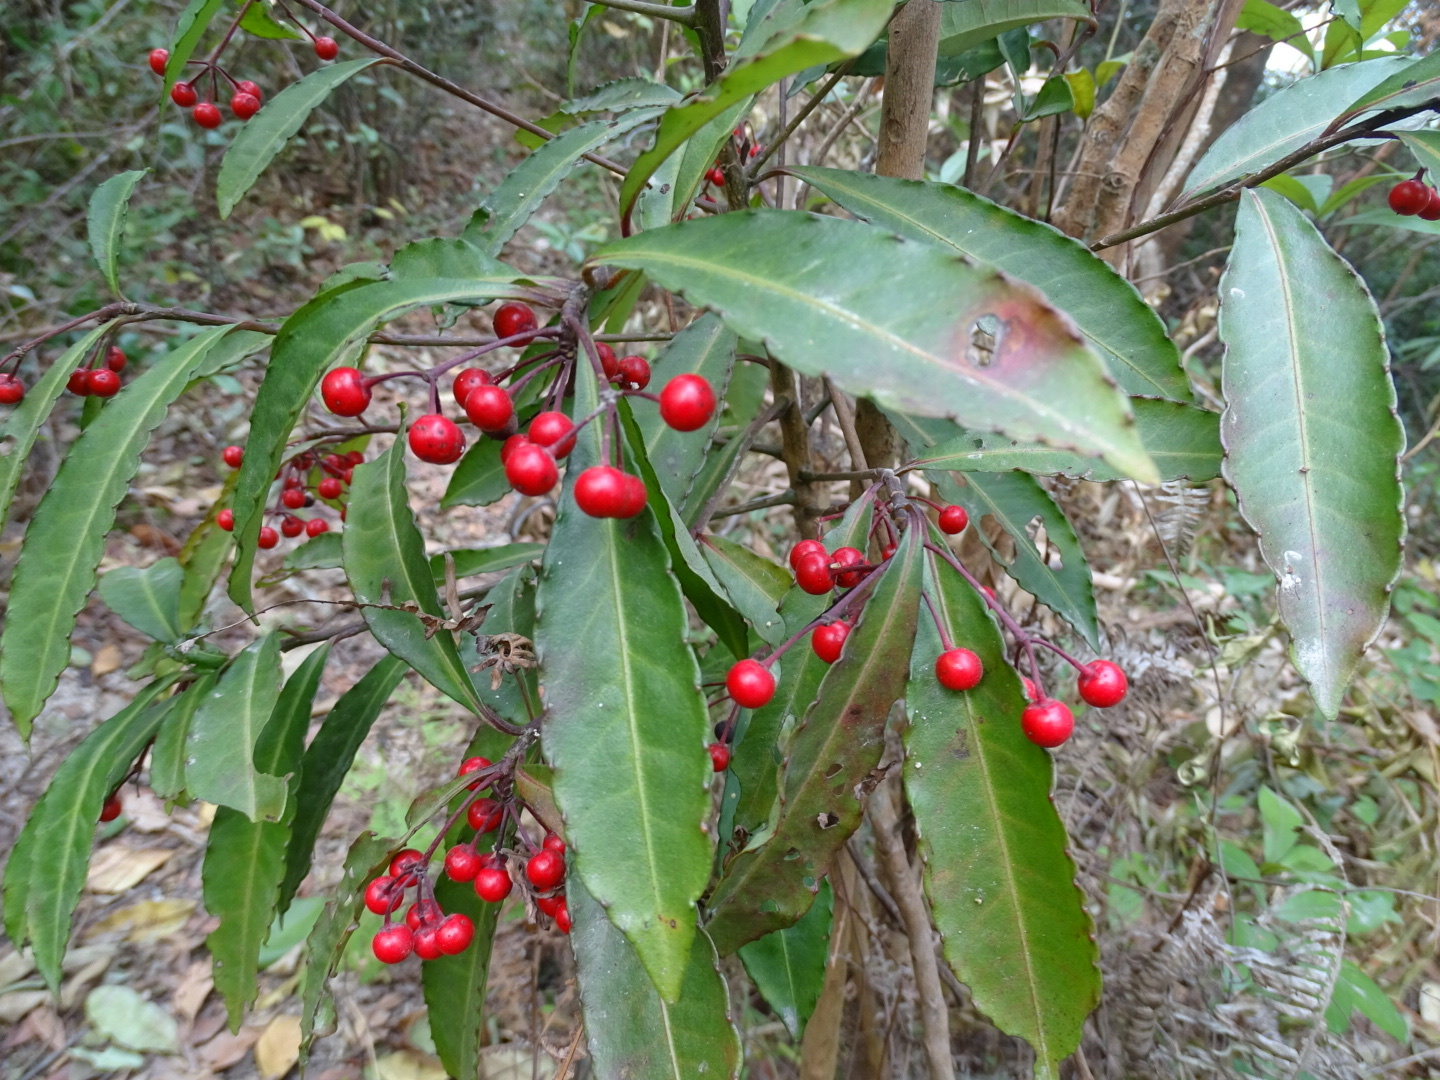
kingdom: Plantae
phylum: Tracheophyta
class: Magnoliopsida
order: Ericales
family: Primulaceae
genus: Ardisia
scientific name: Ardisia crenata
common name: Hen's eyes
